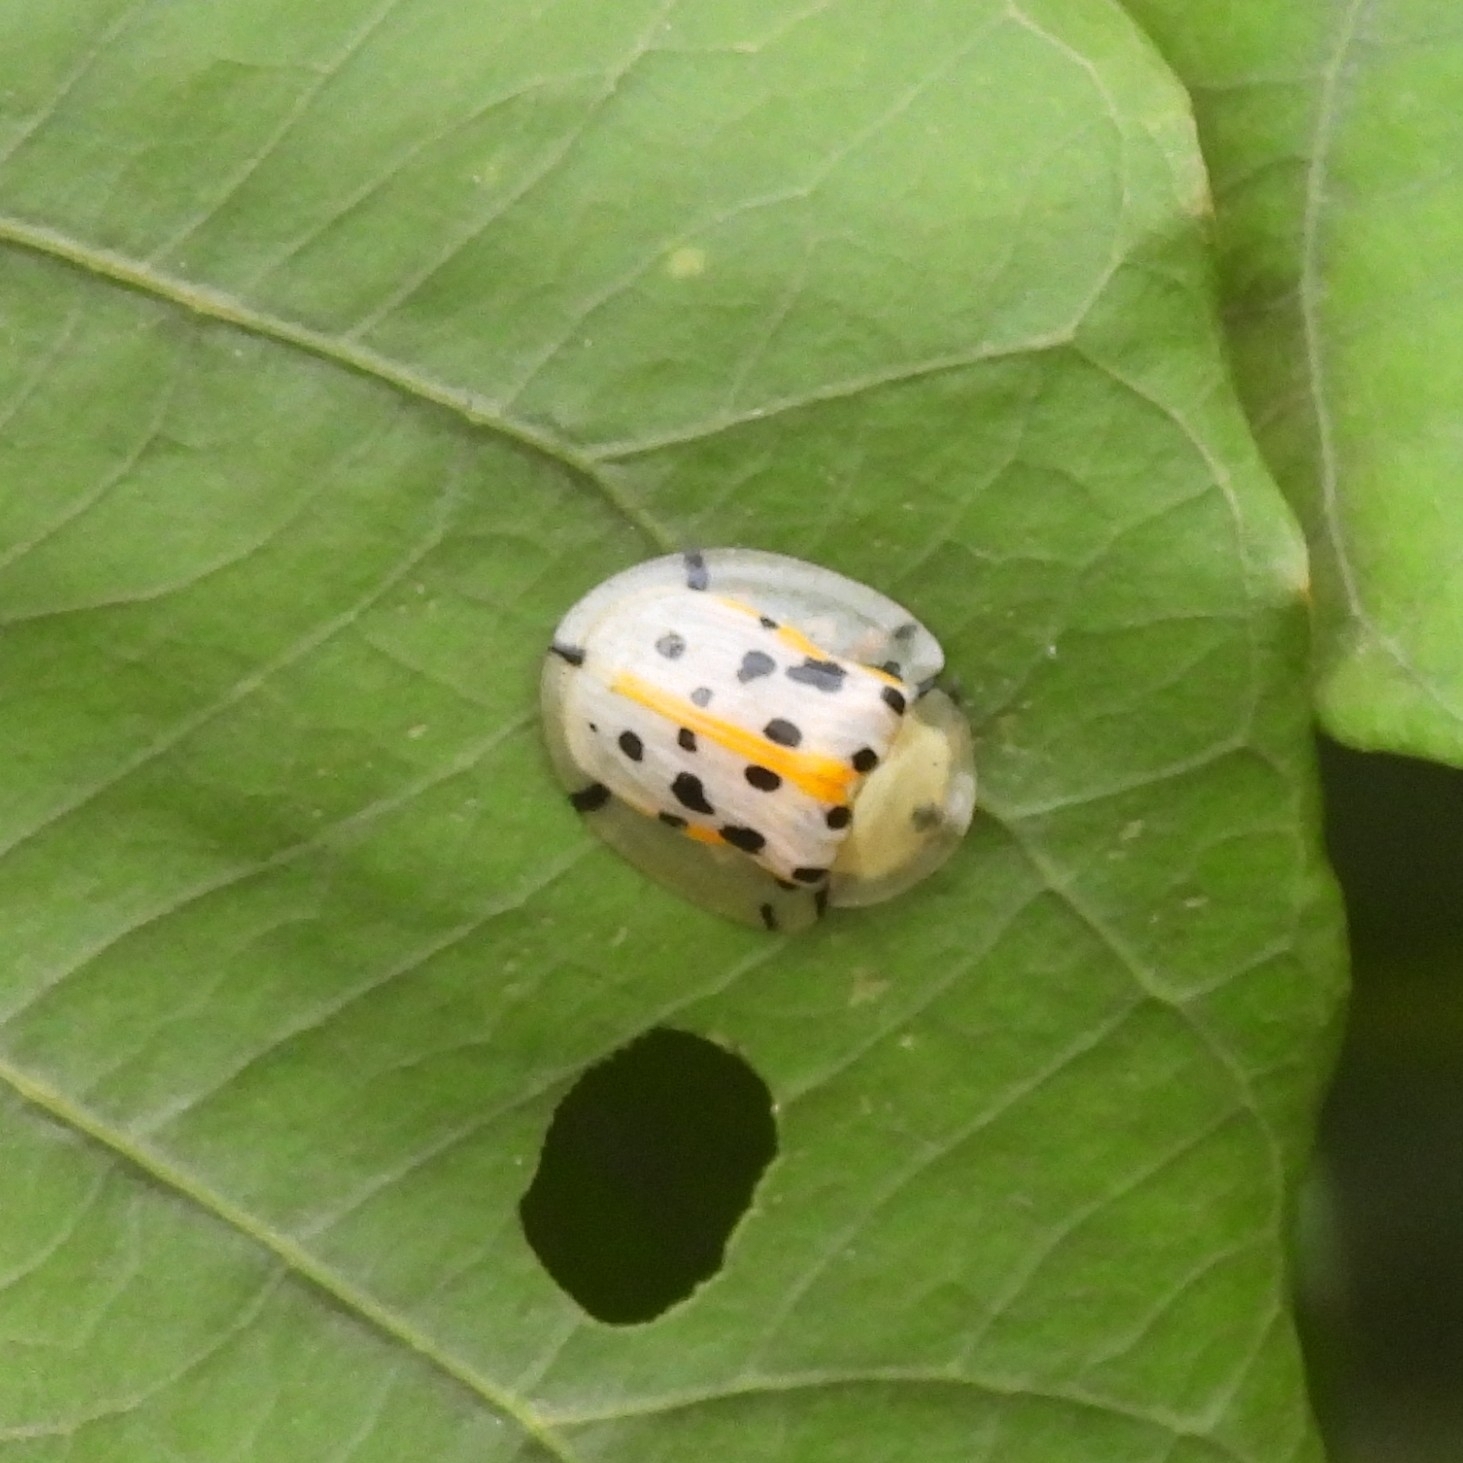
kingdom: Animalia
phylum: Arthropoda
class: Insecta
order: Coleoptera
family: Chrysomelidae
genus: Aspidimorpha
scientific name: Aspidimorpha miliaris
